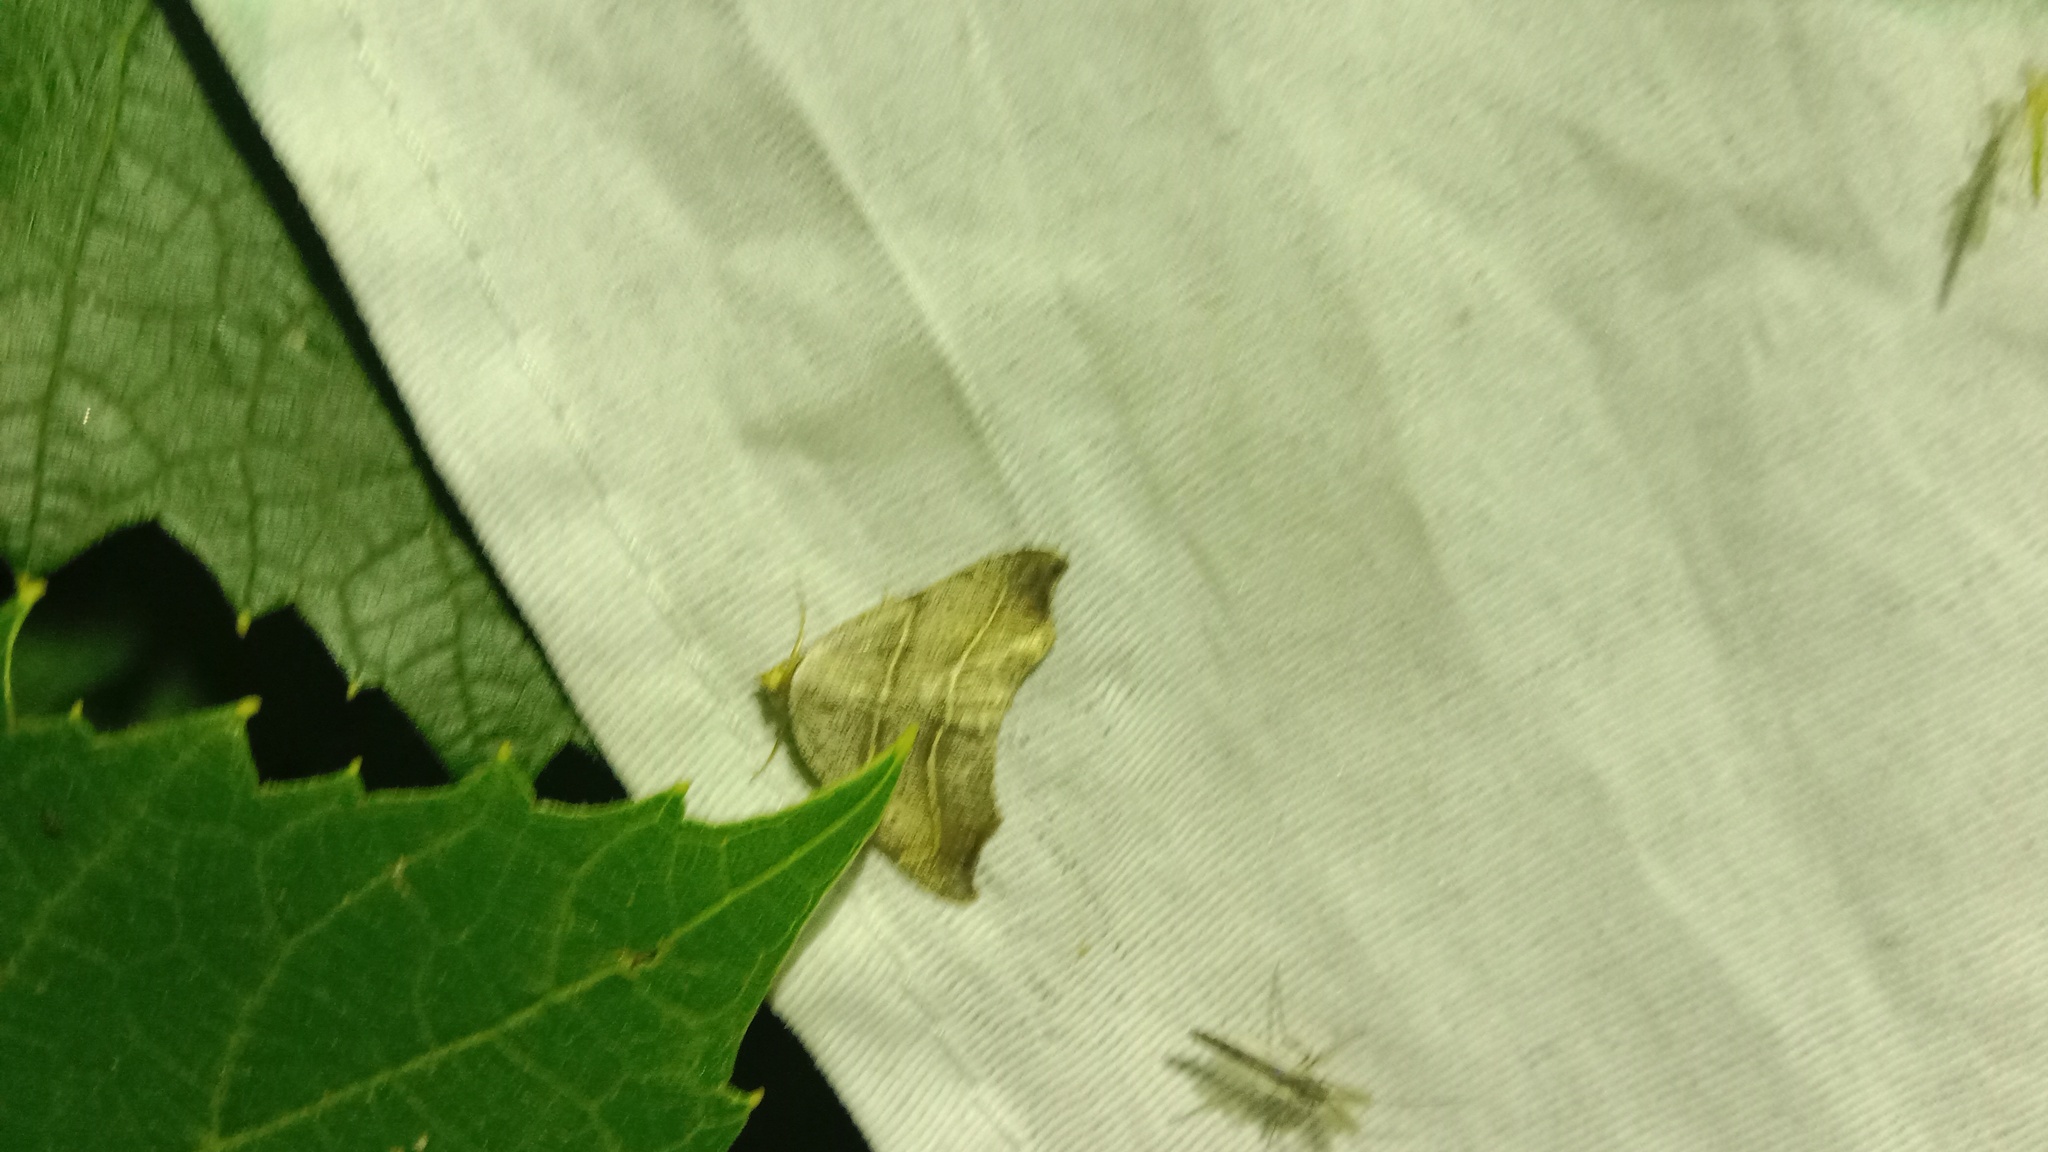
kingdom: Animalia
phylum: Arthropoda
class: Insecta
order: Lepidoptera
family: Erebidae
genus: Laspeyria
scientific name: Laspeyria flexula
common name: Beautiful hook-tip
